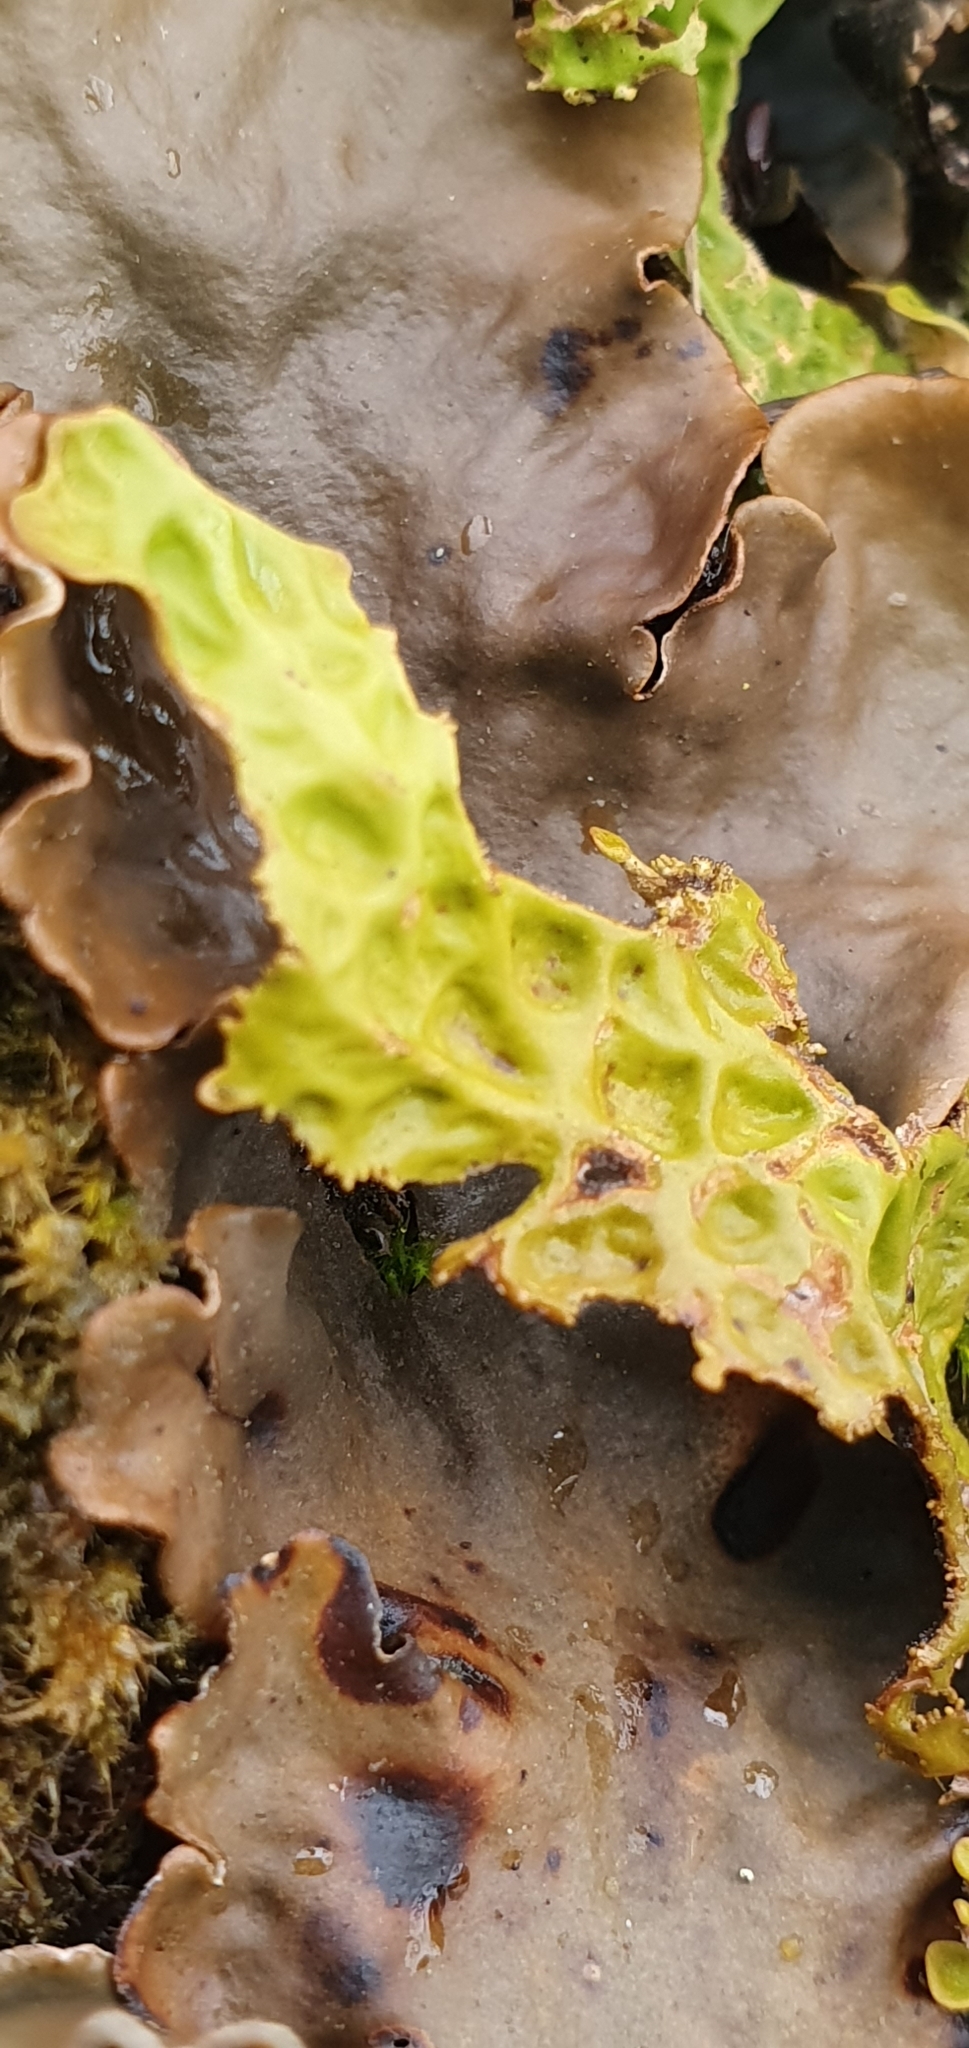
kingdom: Fungi
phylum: Ascomycota
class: Lecanoromycetes
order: Peltigerales
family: Lobariaceae
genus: Lobaria
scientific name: Lobaria pulmonaria
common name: Lungwort
